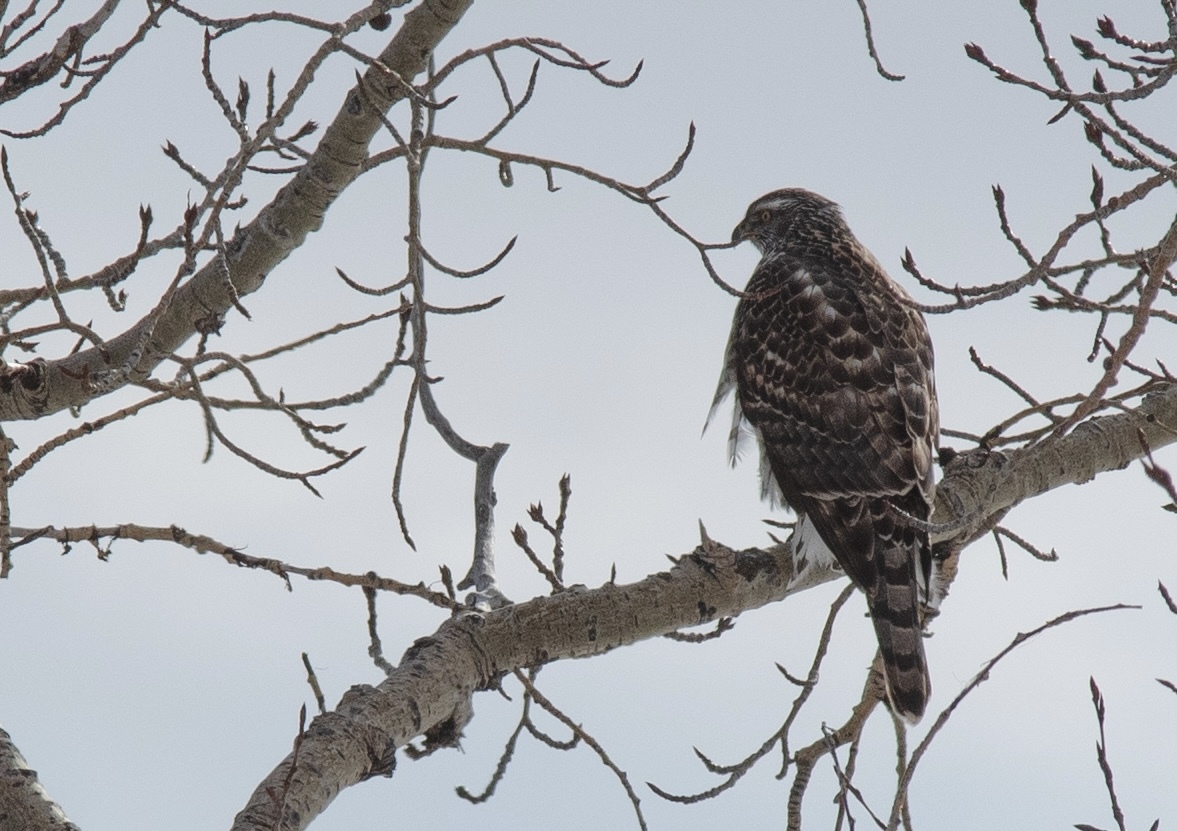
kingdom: Animalia
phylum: Chordata
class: Aves
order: Accipitriformes
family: Accipitridae
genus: Accipiter
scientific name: Accipiter gentilis
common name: Northern goshawk
